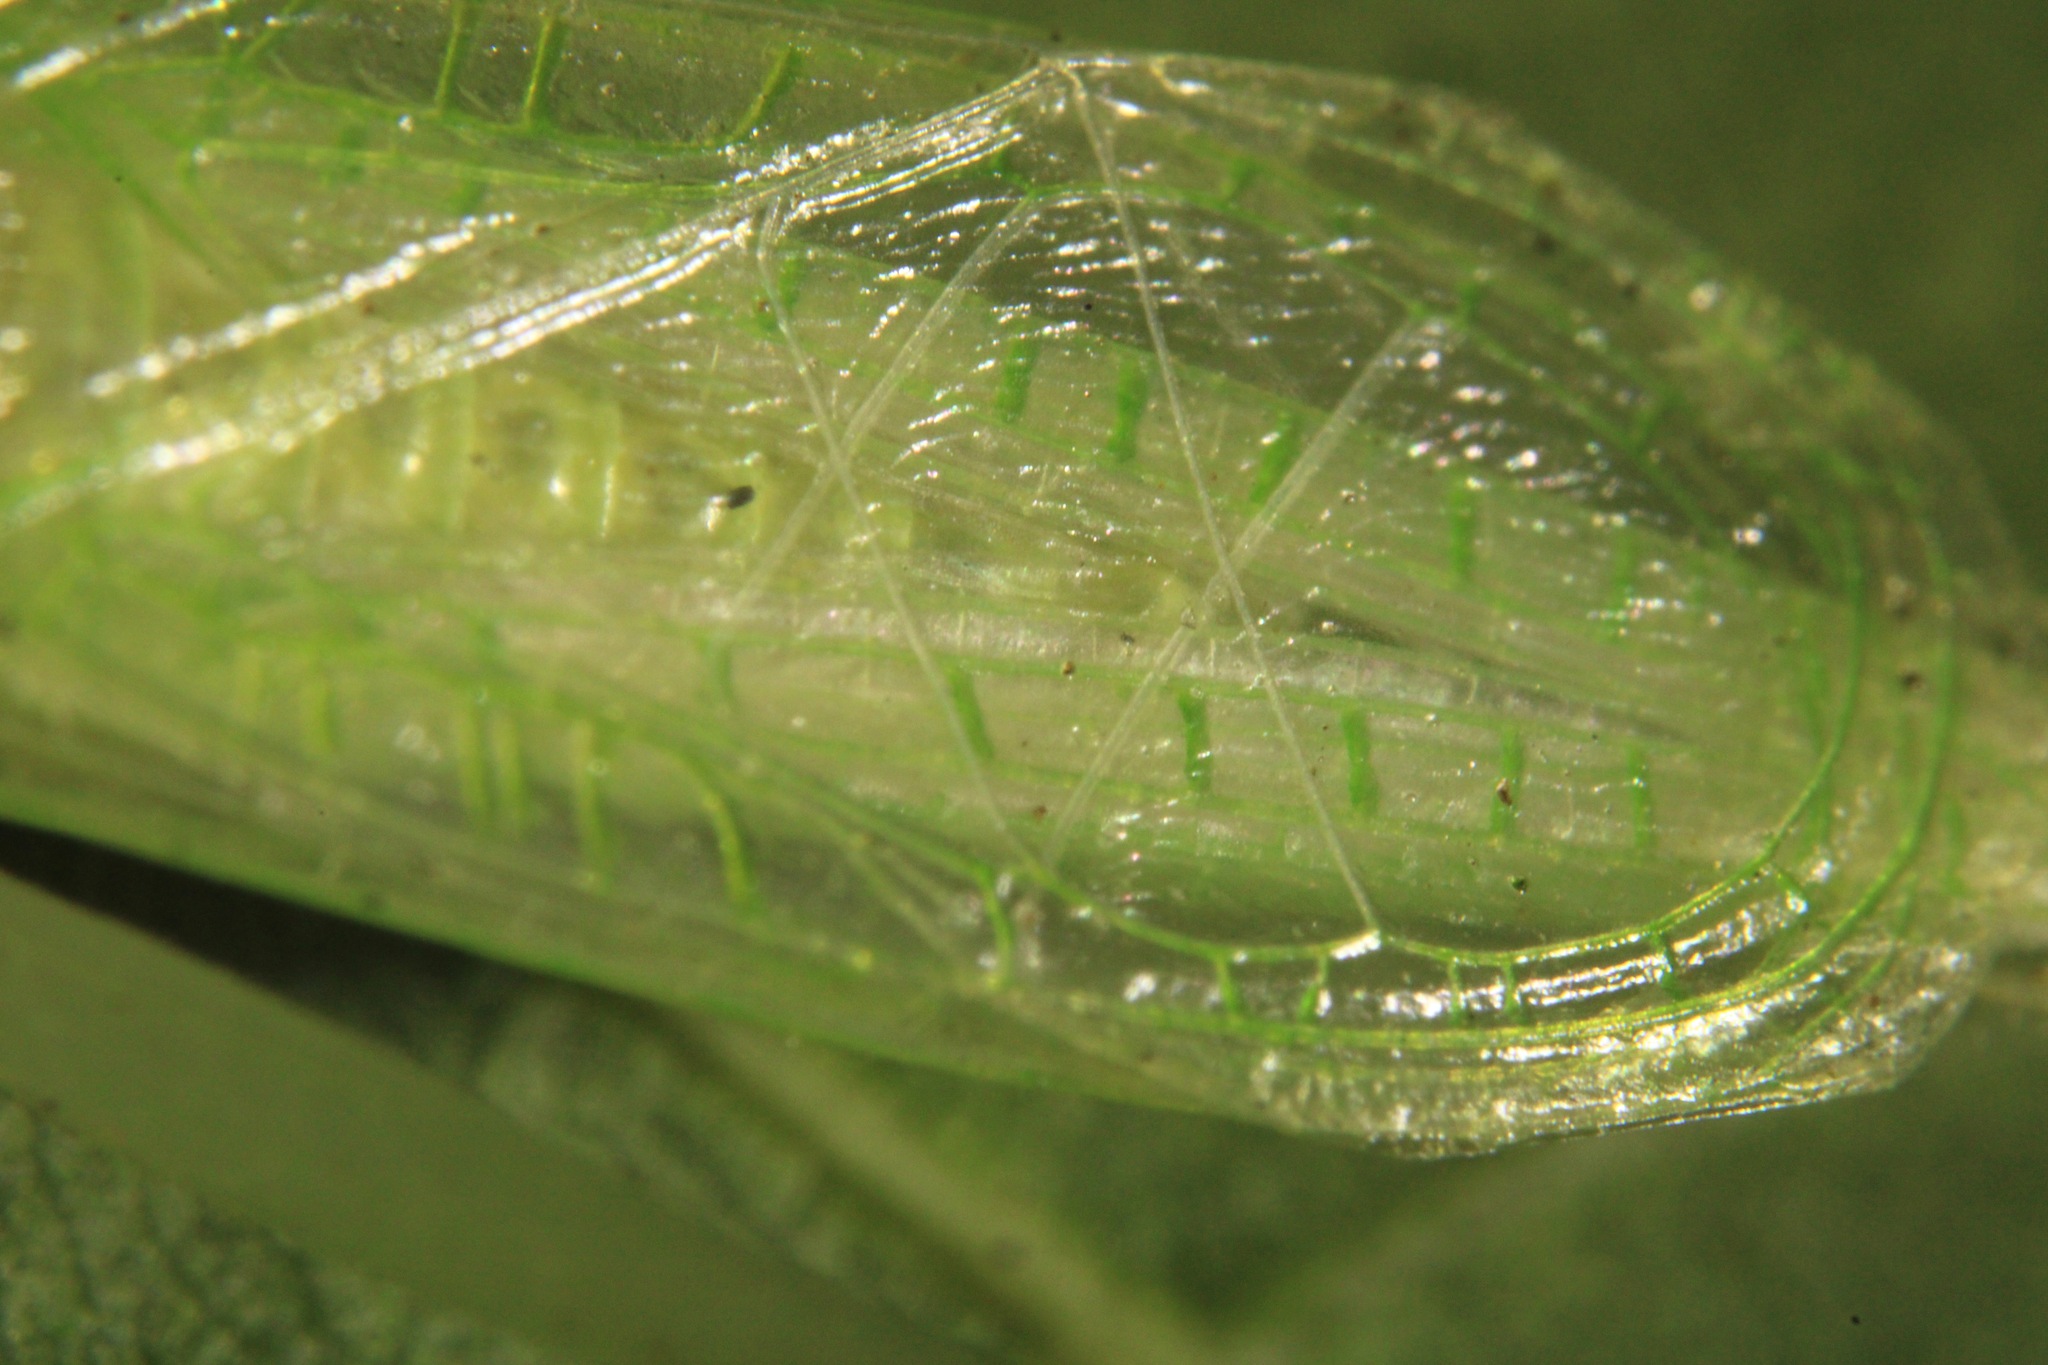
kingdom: Animalia
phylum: Arthropoda
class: Insecta
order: Orthoptera
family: Gryllidae
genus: Oecanthus
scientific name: Oecanthus niveus
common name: Narrow-winged tree cricket
